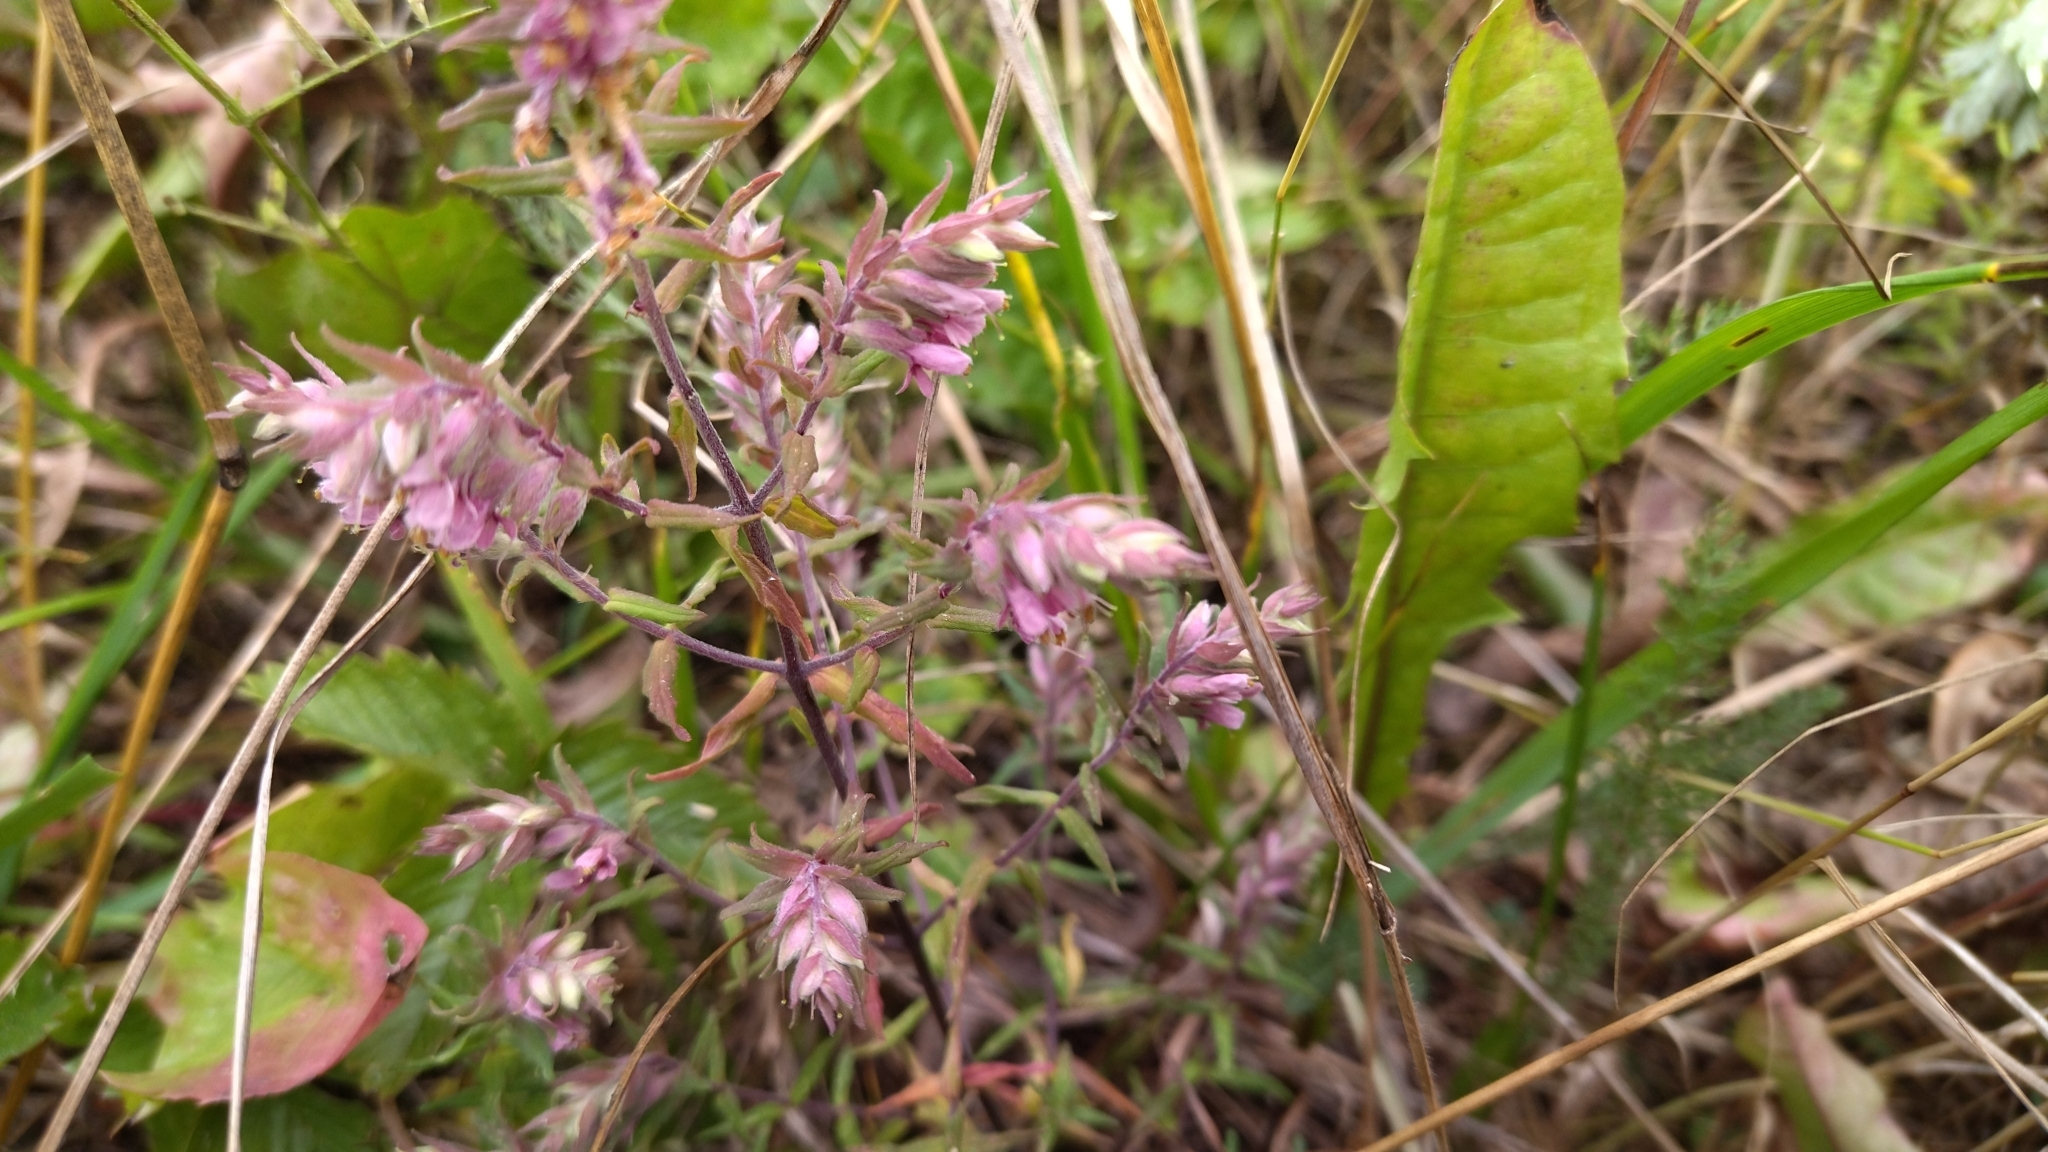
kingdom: Plantae
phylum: Tracheophyta
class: Magnoliopsida
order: Lamiales
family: Orobanchaceae
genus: Odontites
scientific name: Odontites vulgaris
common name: Broomrape
